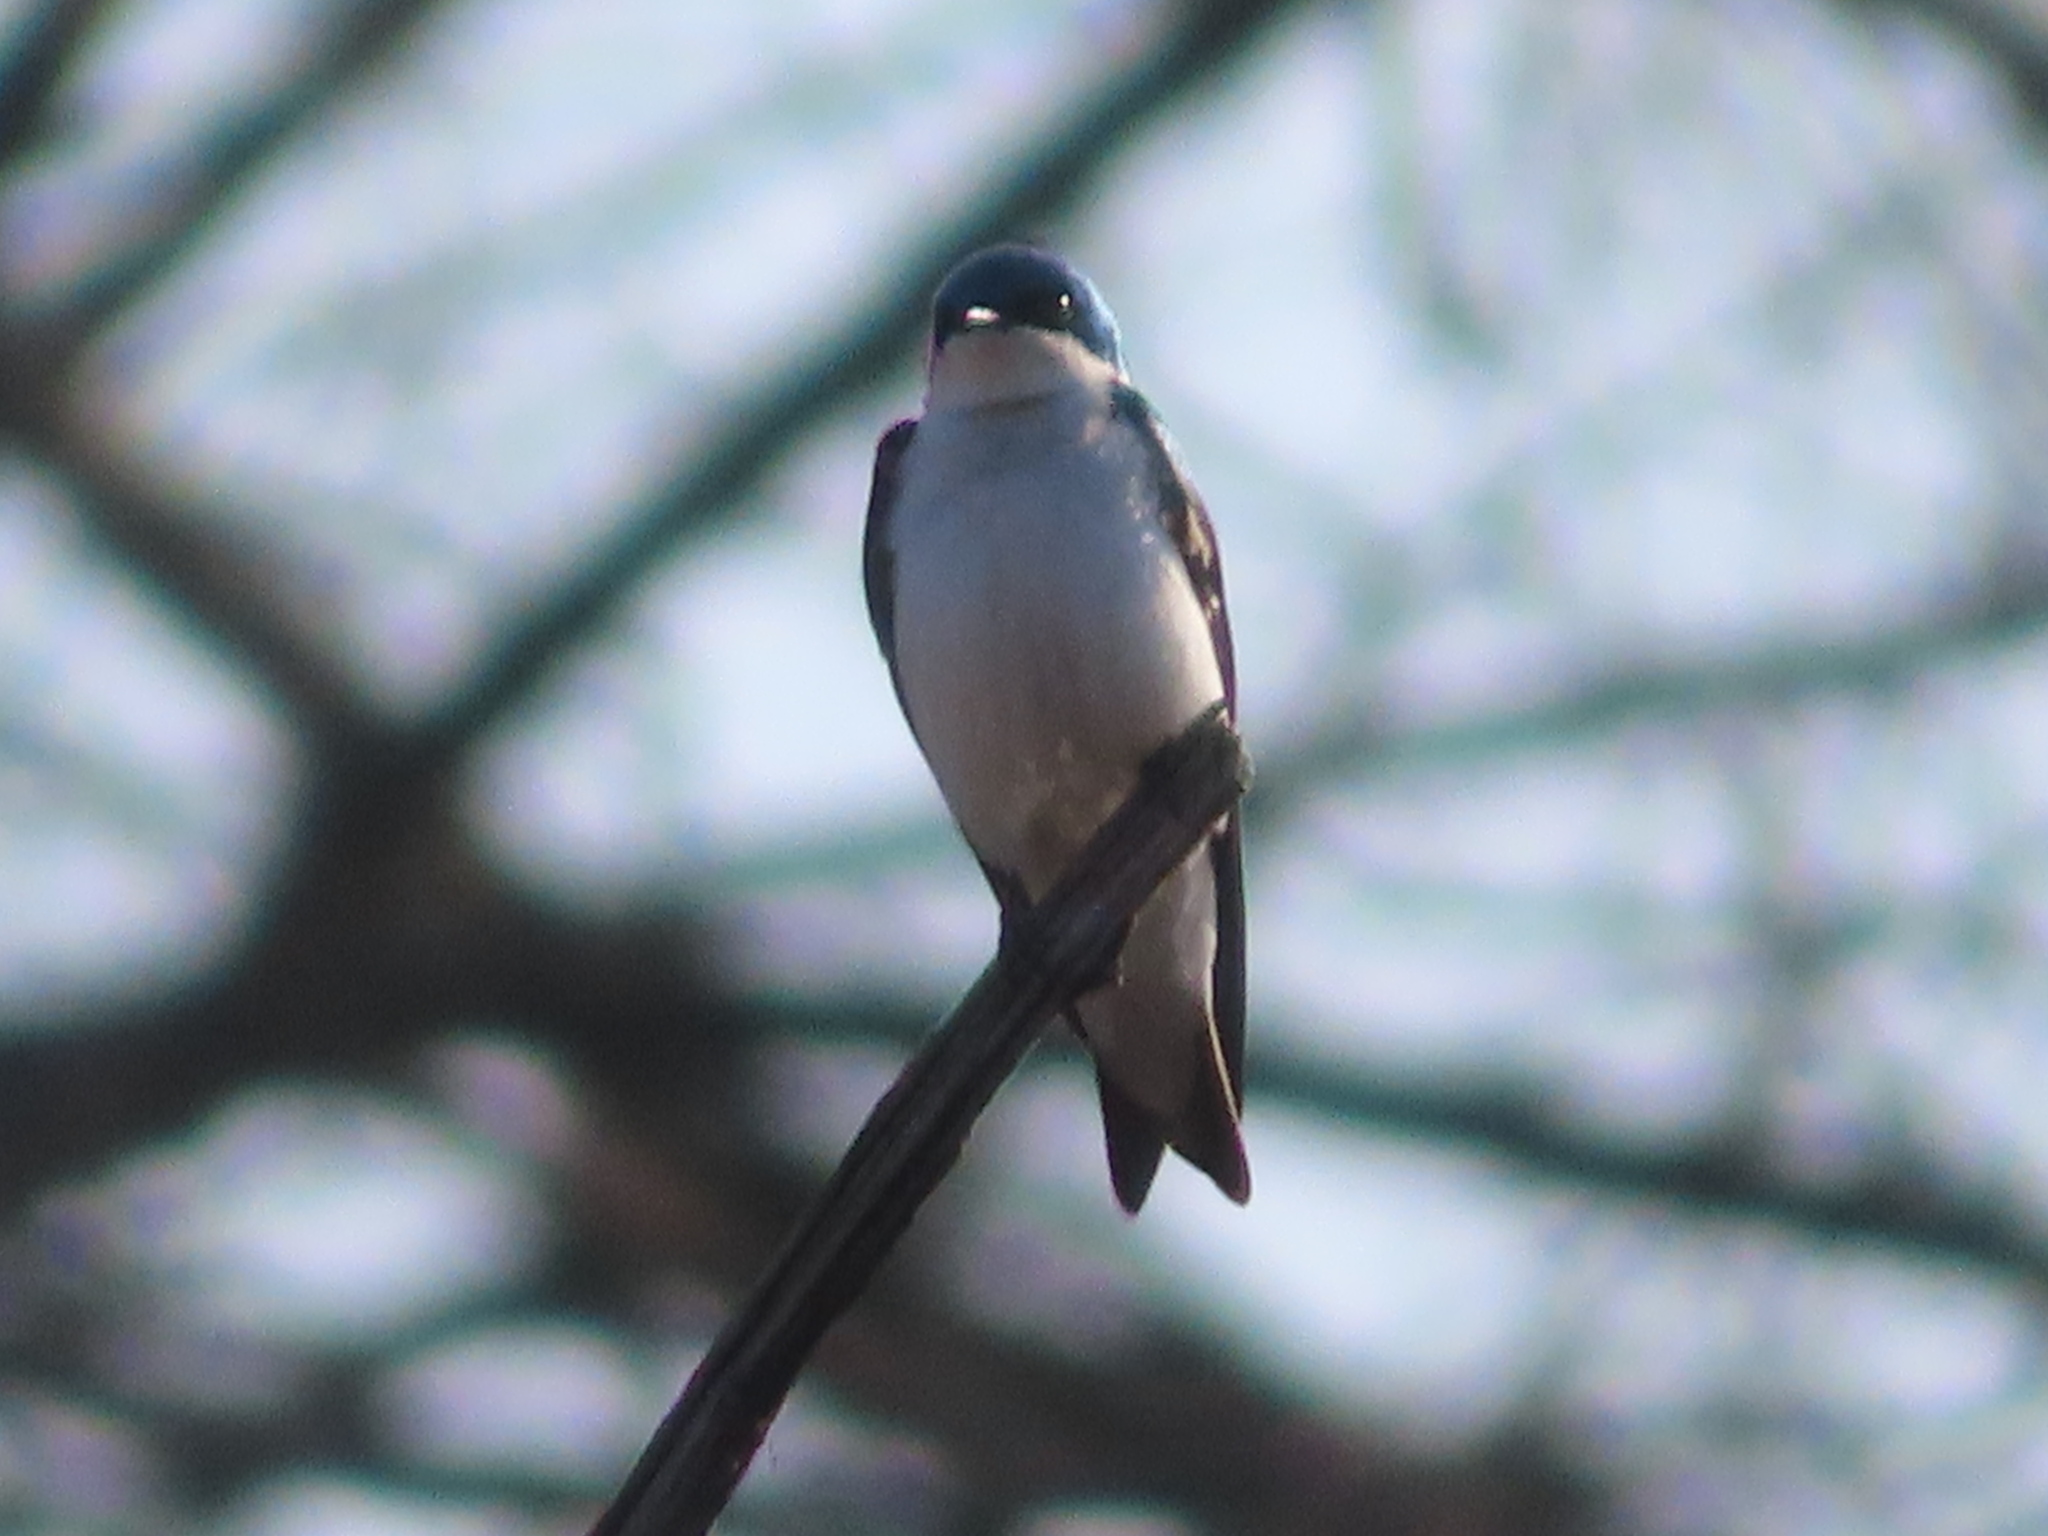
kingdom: Animalia
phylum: Chordata
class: Aves
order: Passeriformes
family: Hirundinidae
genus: Tachycineta
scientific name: Tachycineta bicolor
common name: Tree swallow
